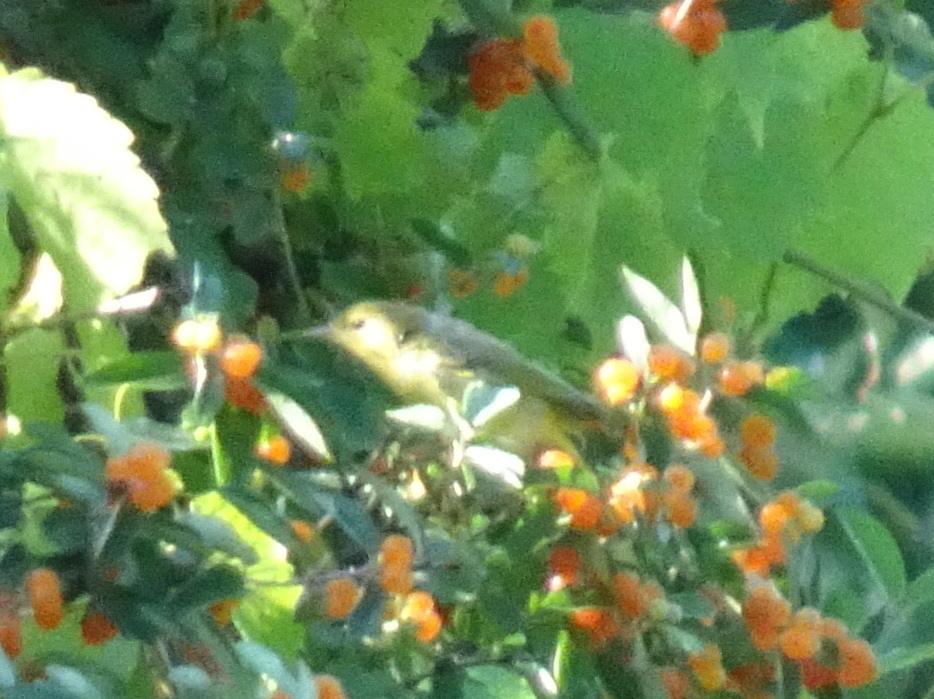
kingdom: Animalia
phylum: Chordata
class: Aves
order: Passeriformes
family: Parulidae
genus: Setophaga
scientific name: Setophaga petechia
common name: Yellow warbler
